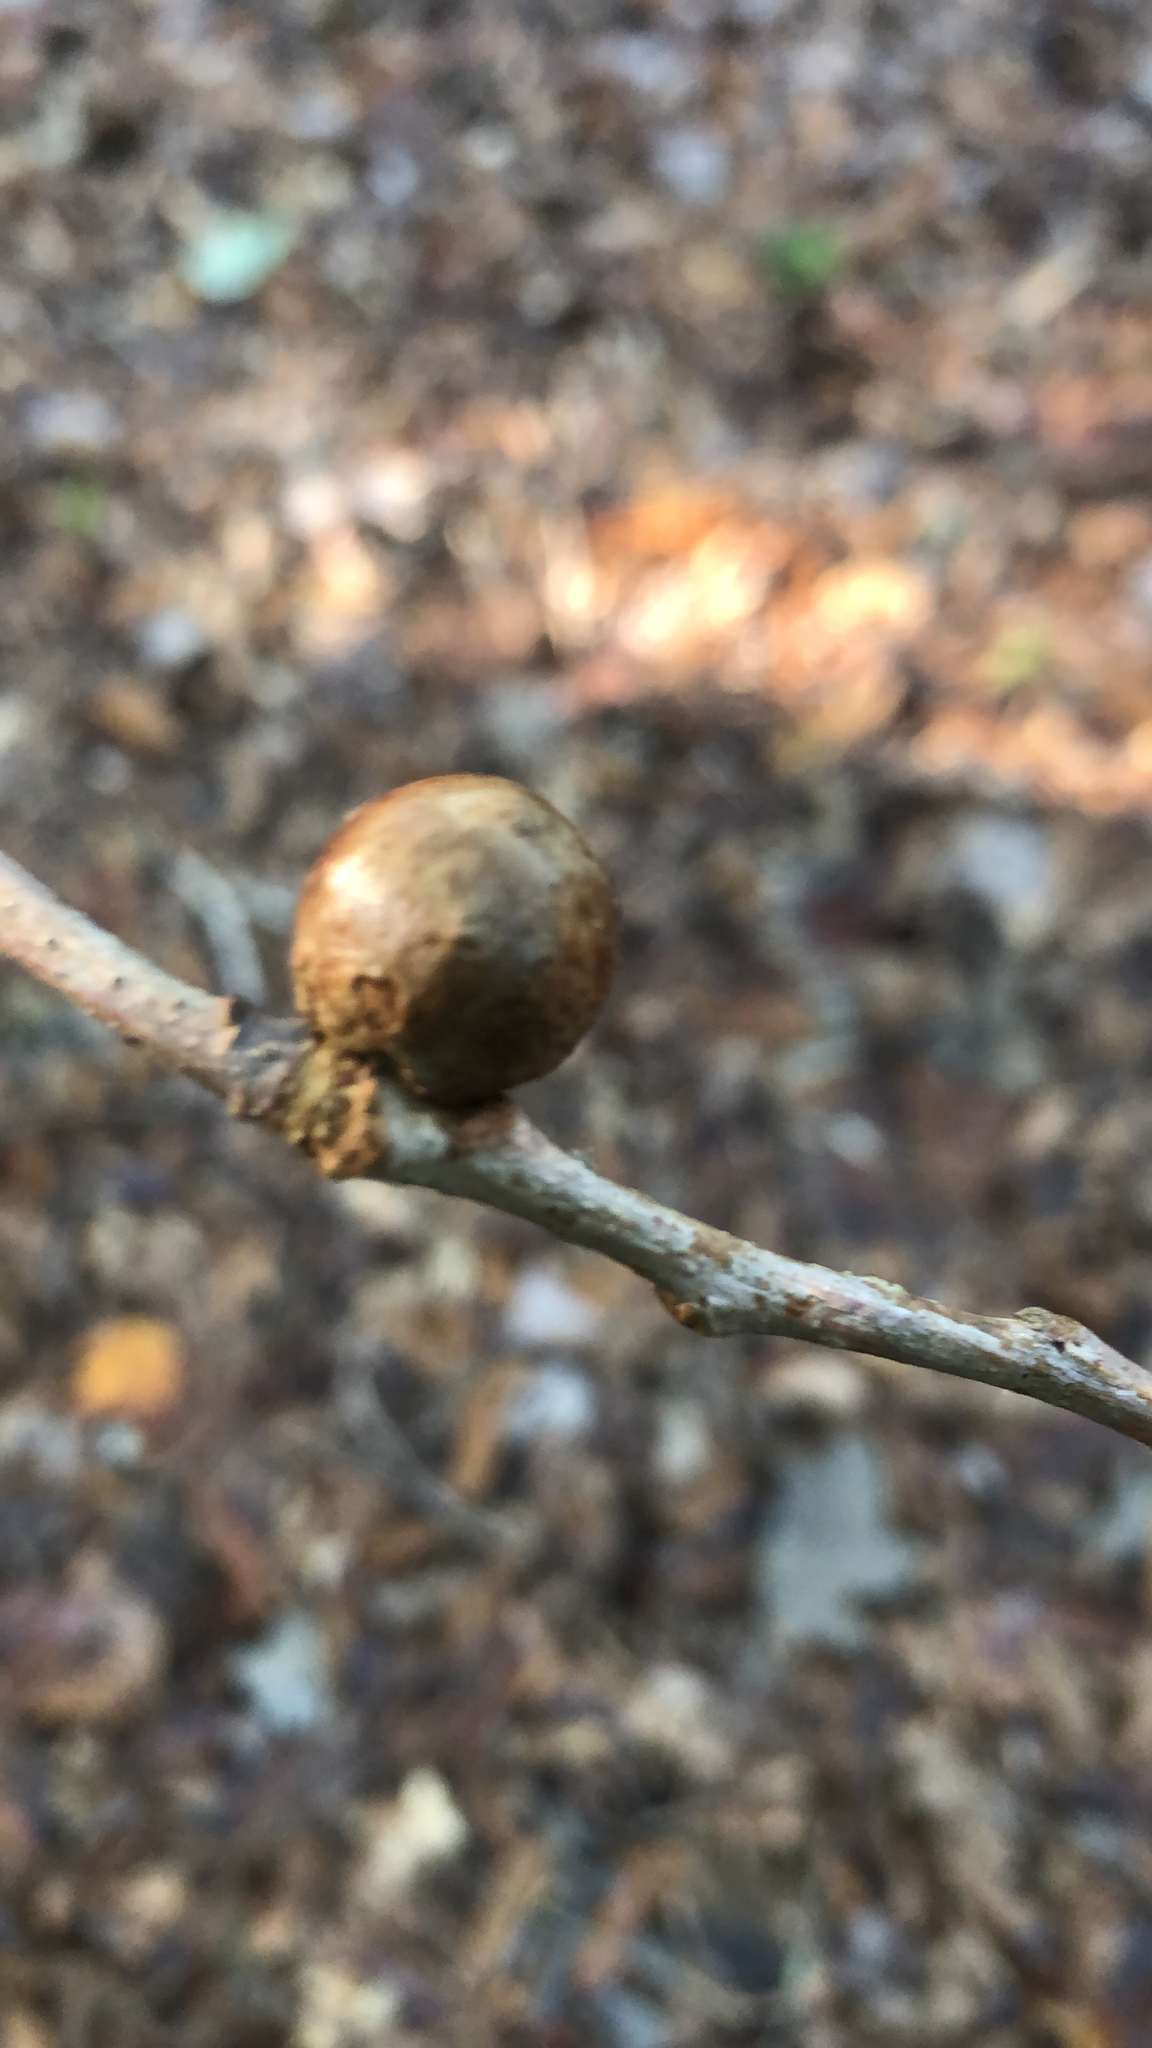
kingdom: Animalia
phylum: Arthropoda
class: Insecta
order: Hymenoptera
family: Cynipidae
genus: Disholcaspis
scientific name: Disholcaspis quercusglobulus
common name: Round bullet gall wasp
